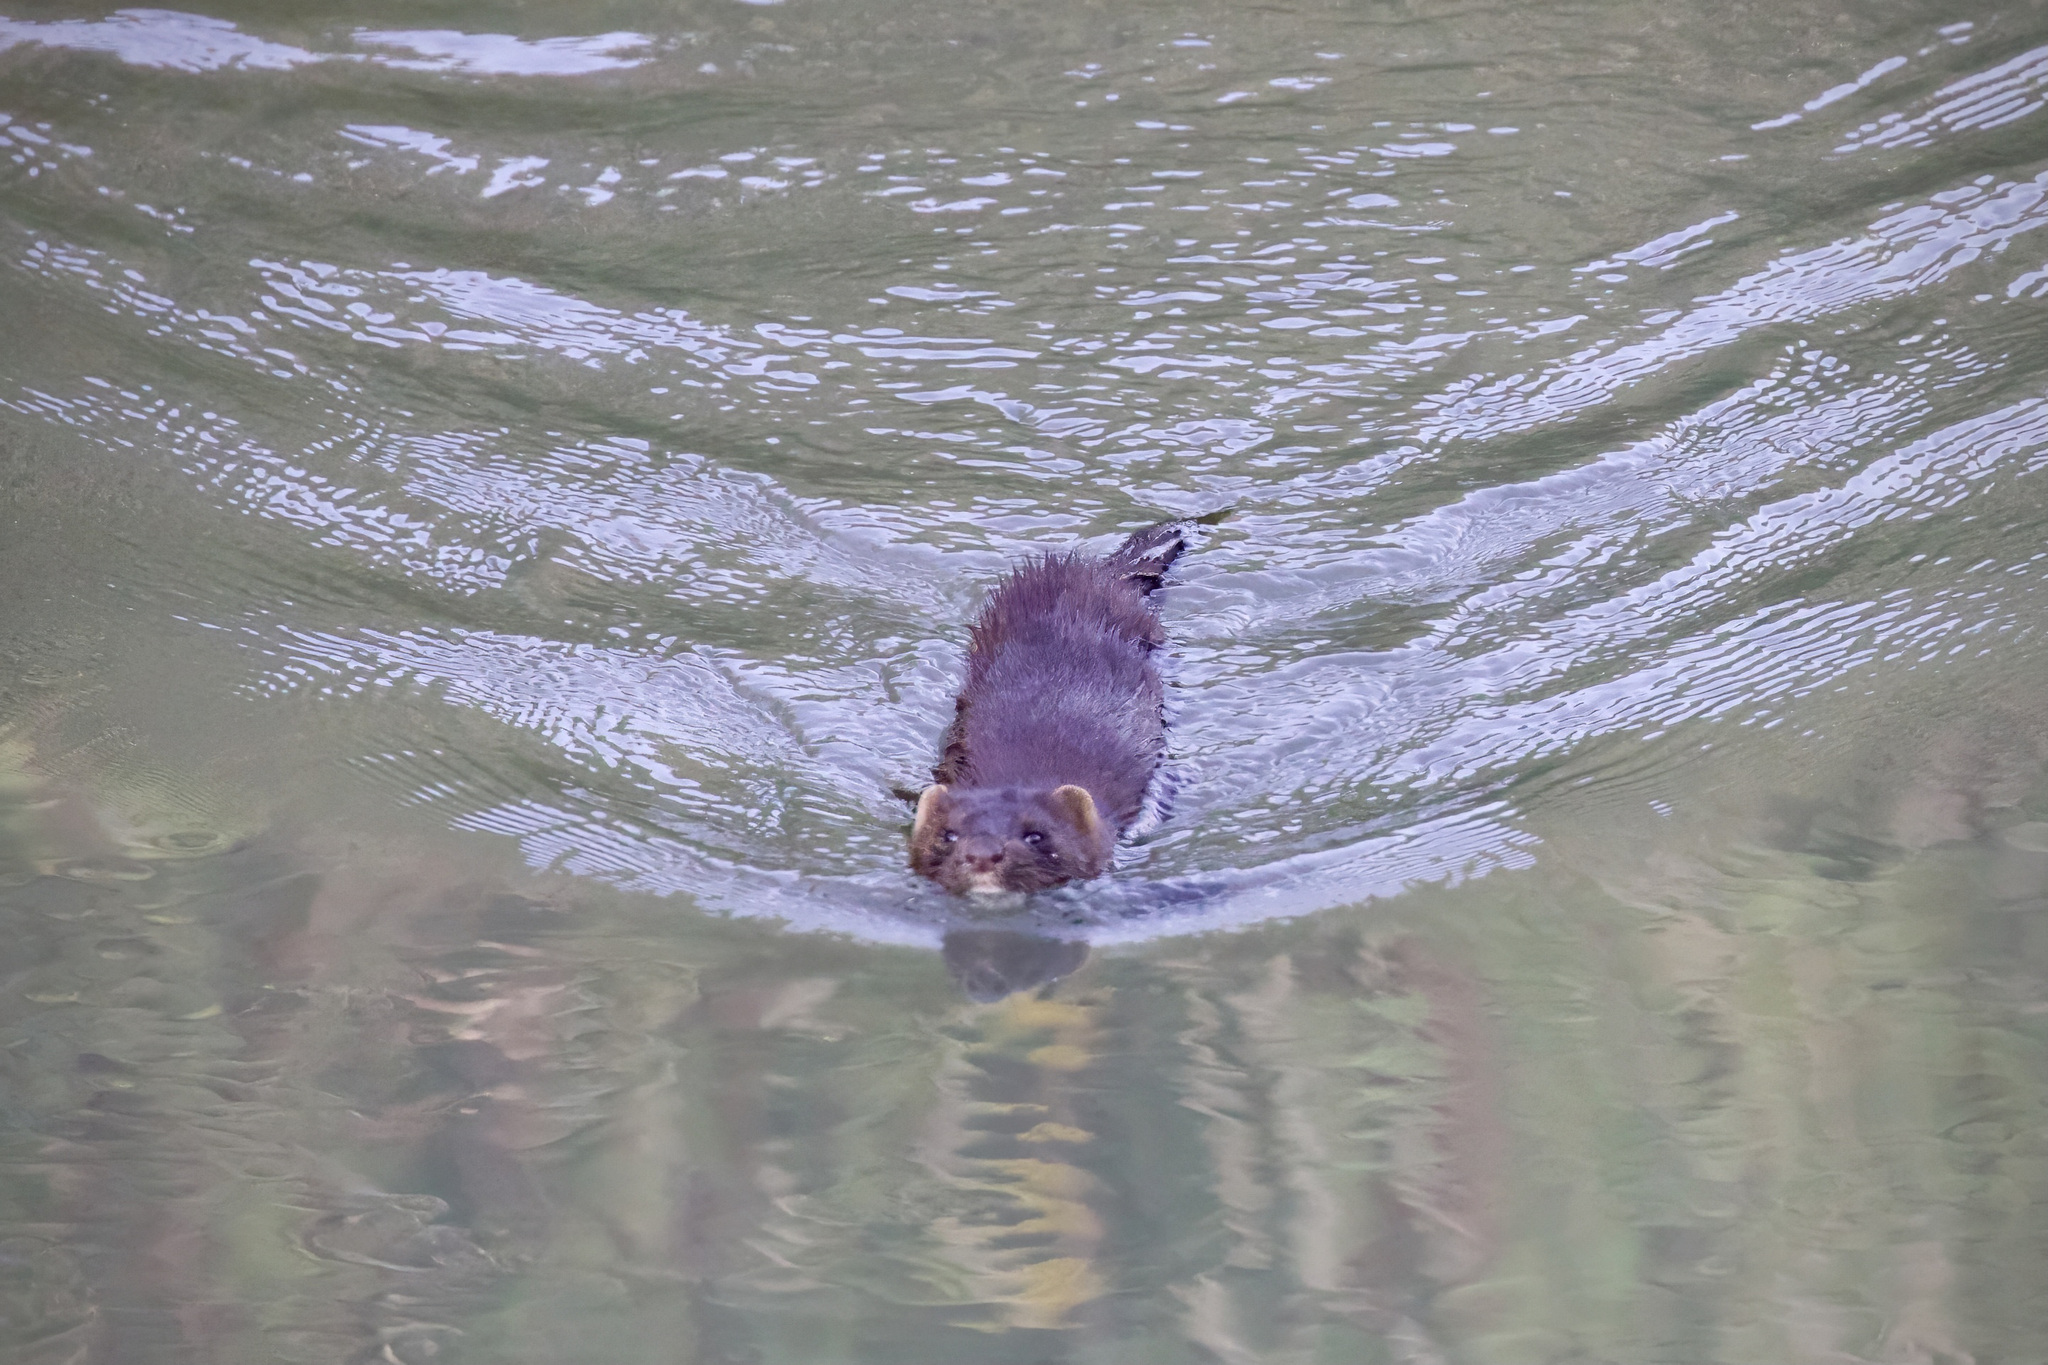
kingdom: Animalia
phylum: Chordata
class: Mammalia
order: Carnivora
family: Mustelidae
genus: Mustela
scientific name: Mustela
